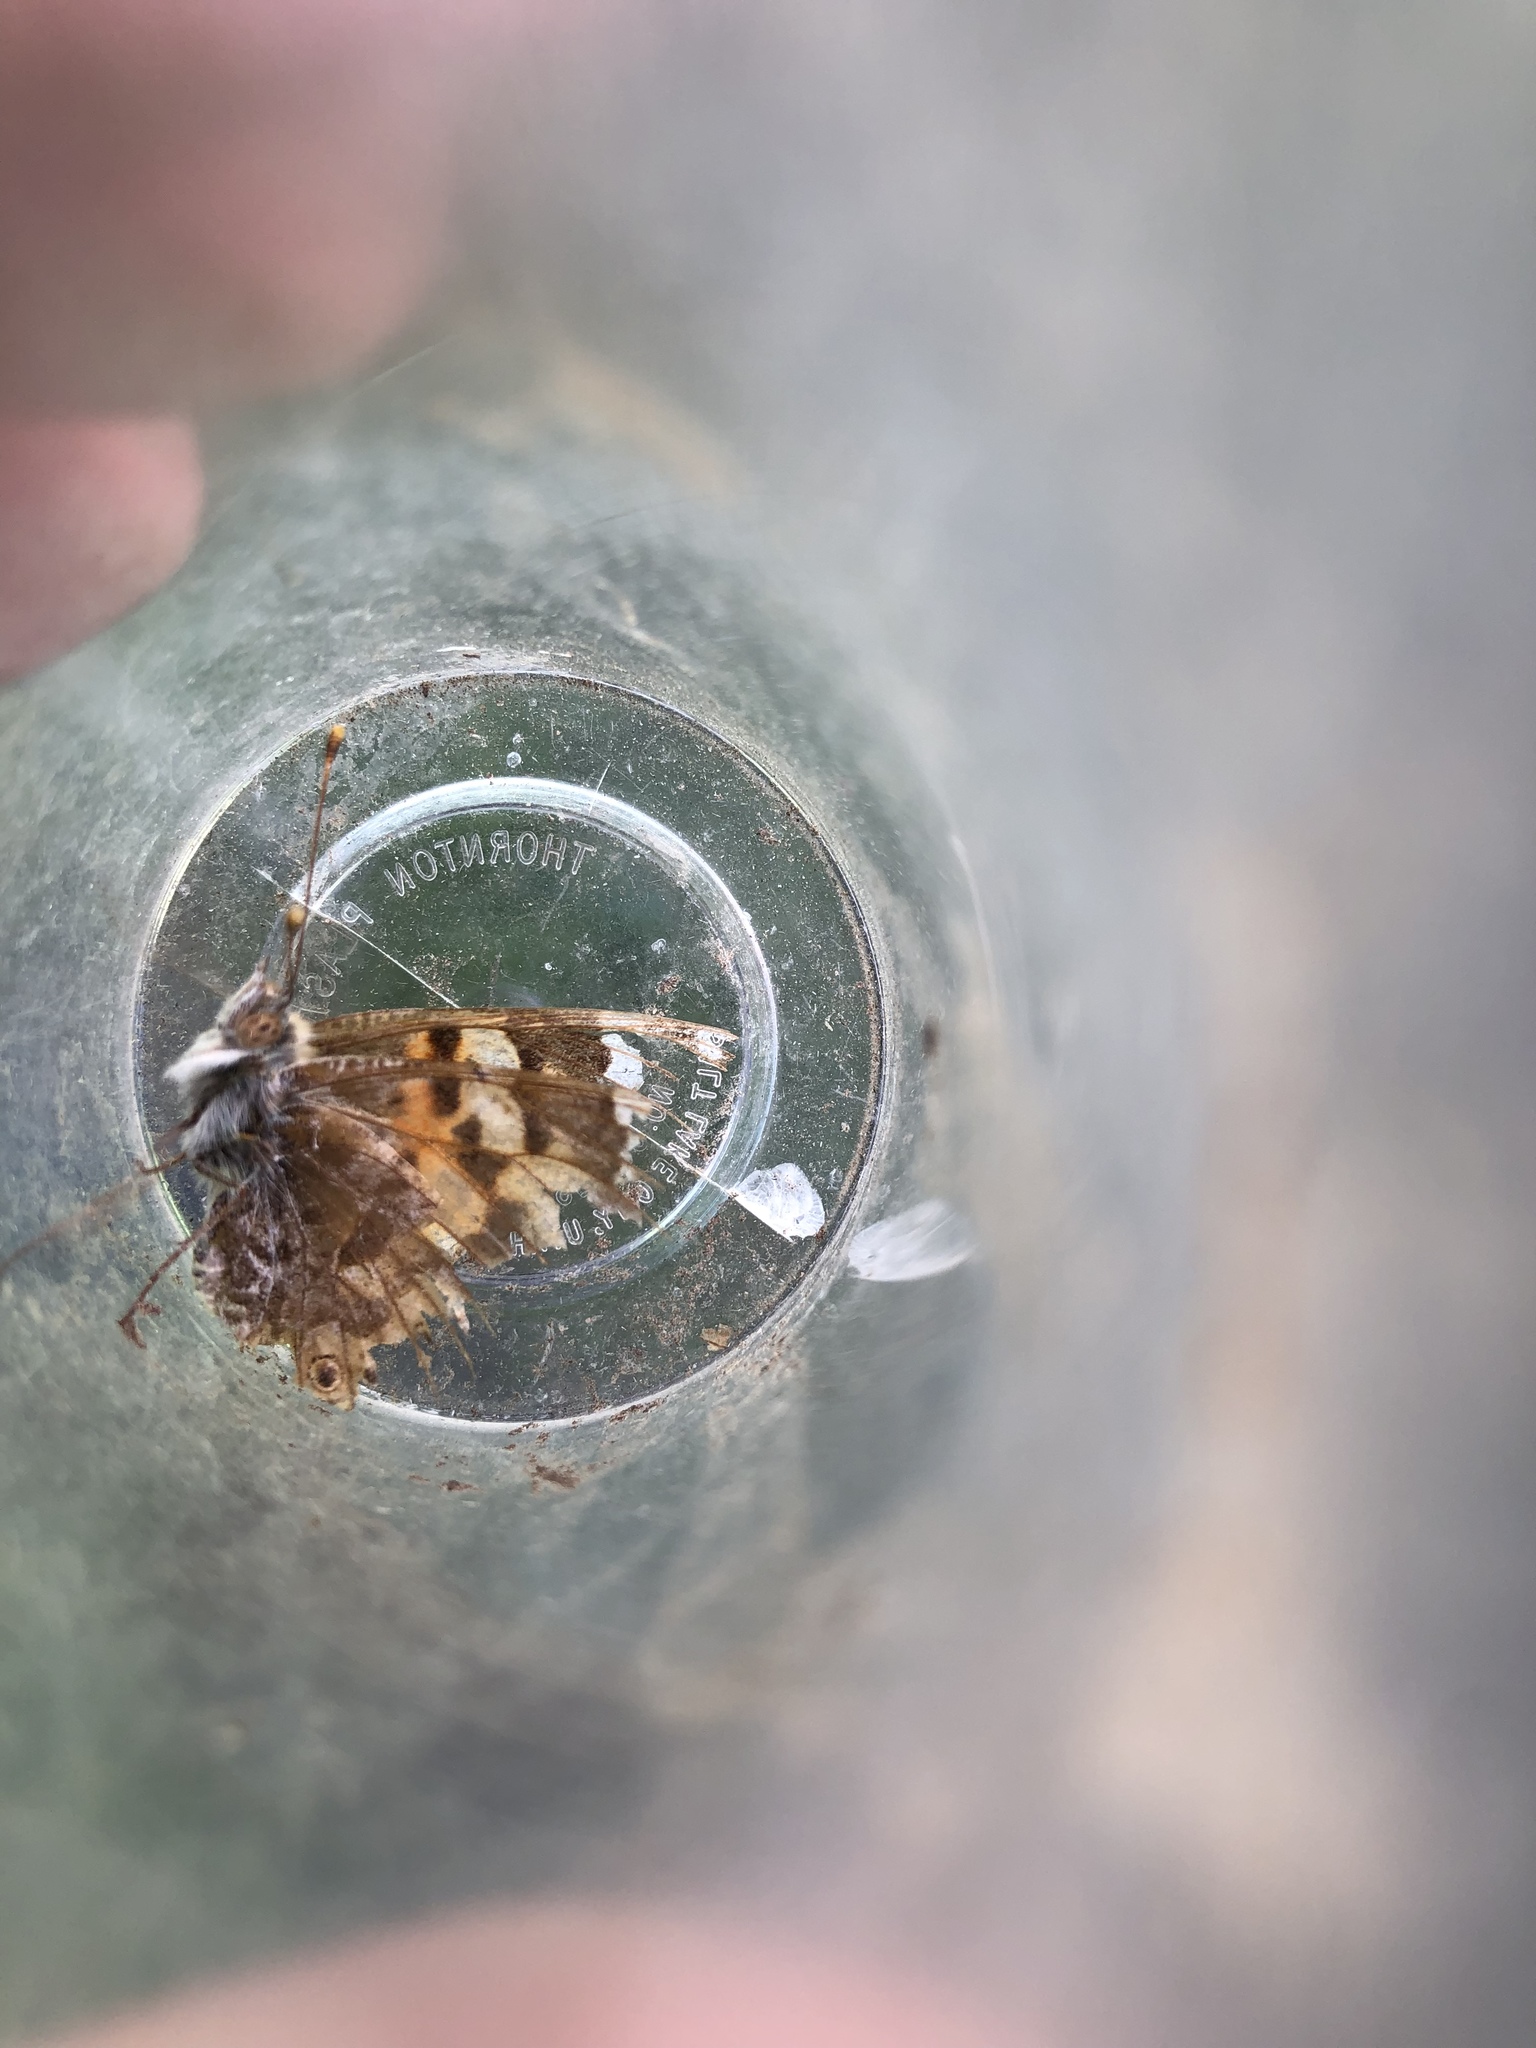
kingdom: Animalia
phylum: Arthropoda
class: Insecta
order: Lepidoptera
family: Nymphalidae
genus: Vanessa
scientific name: Vanessa cardui
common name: Painted lady
